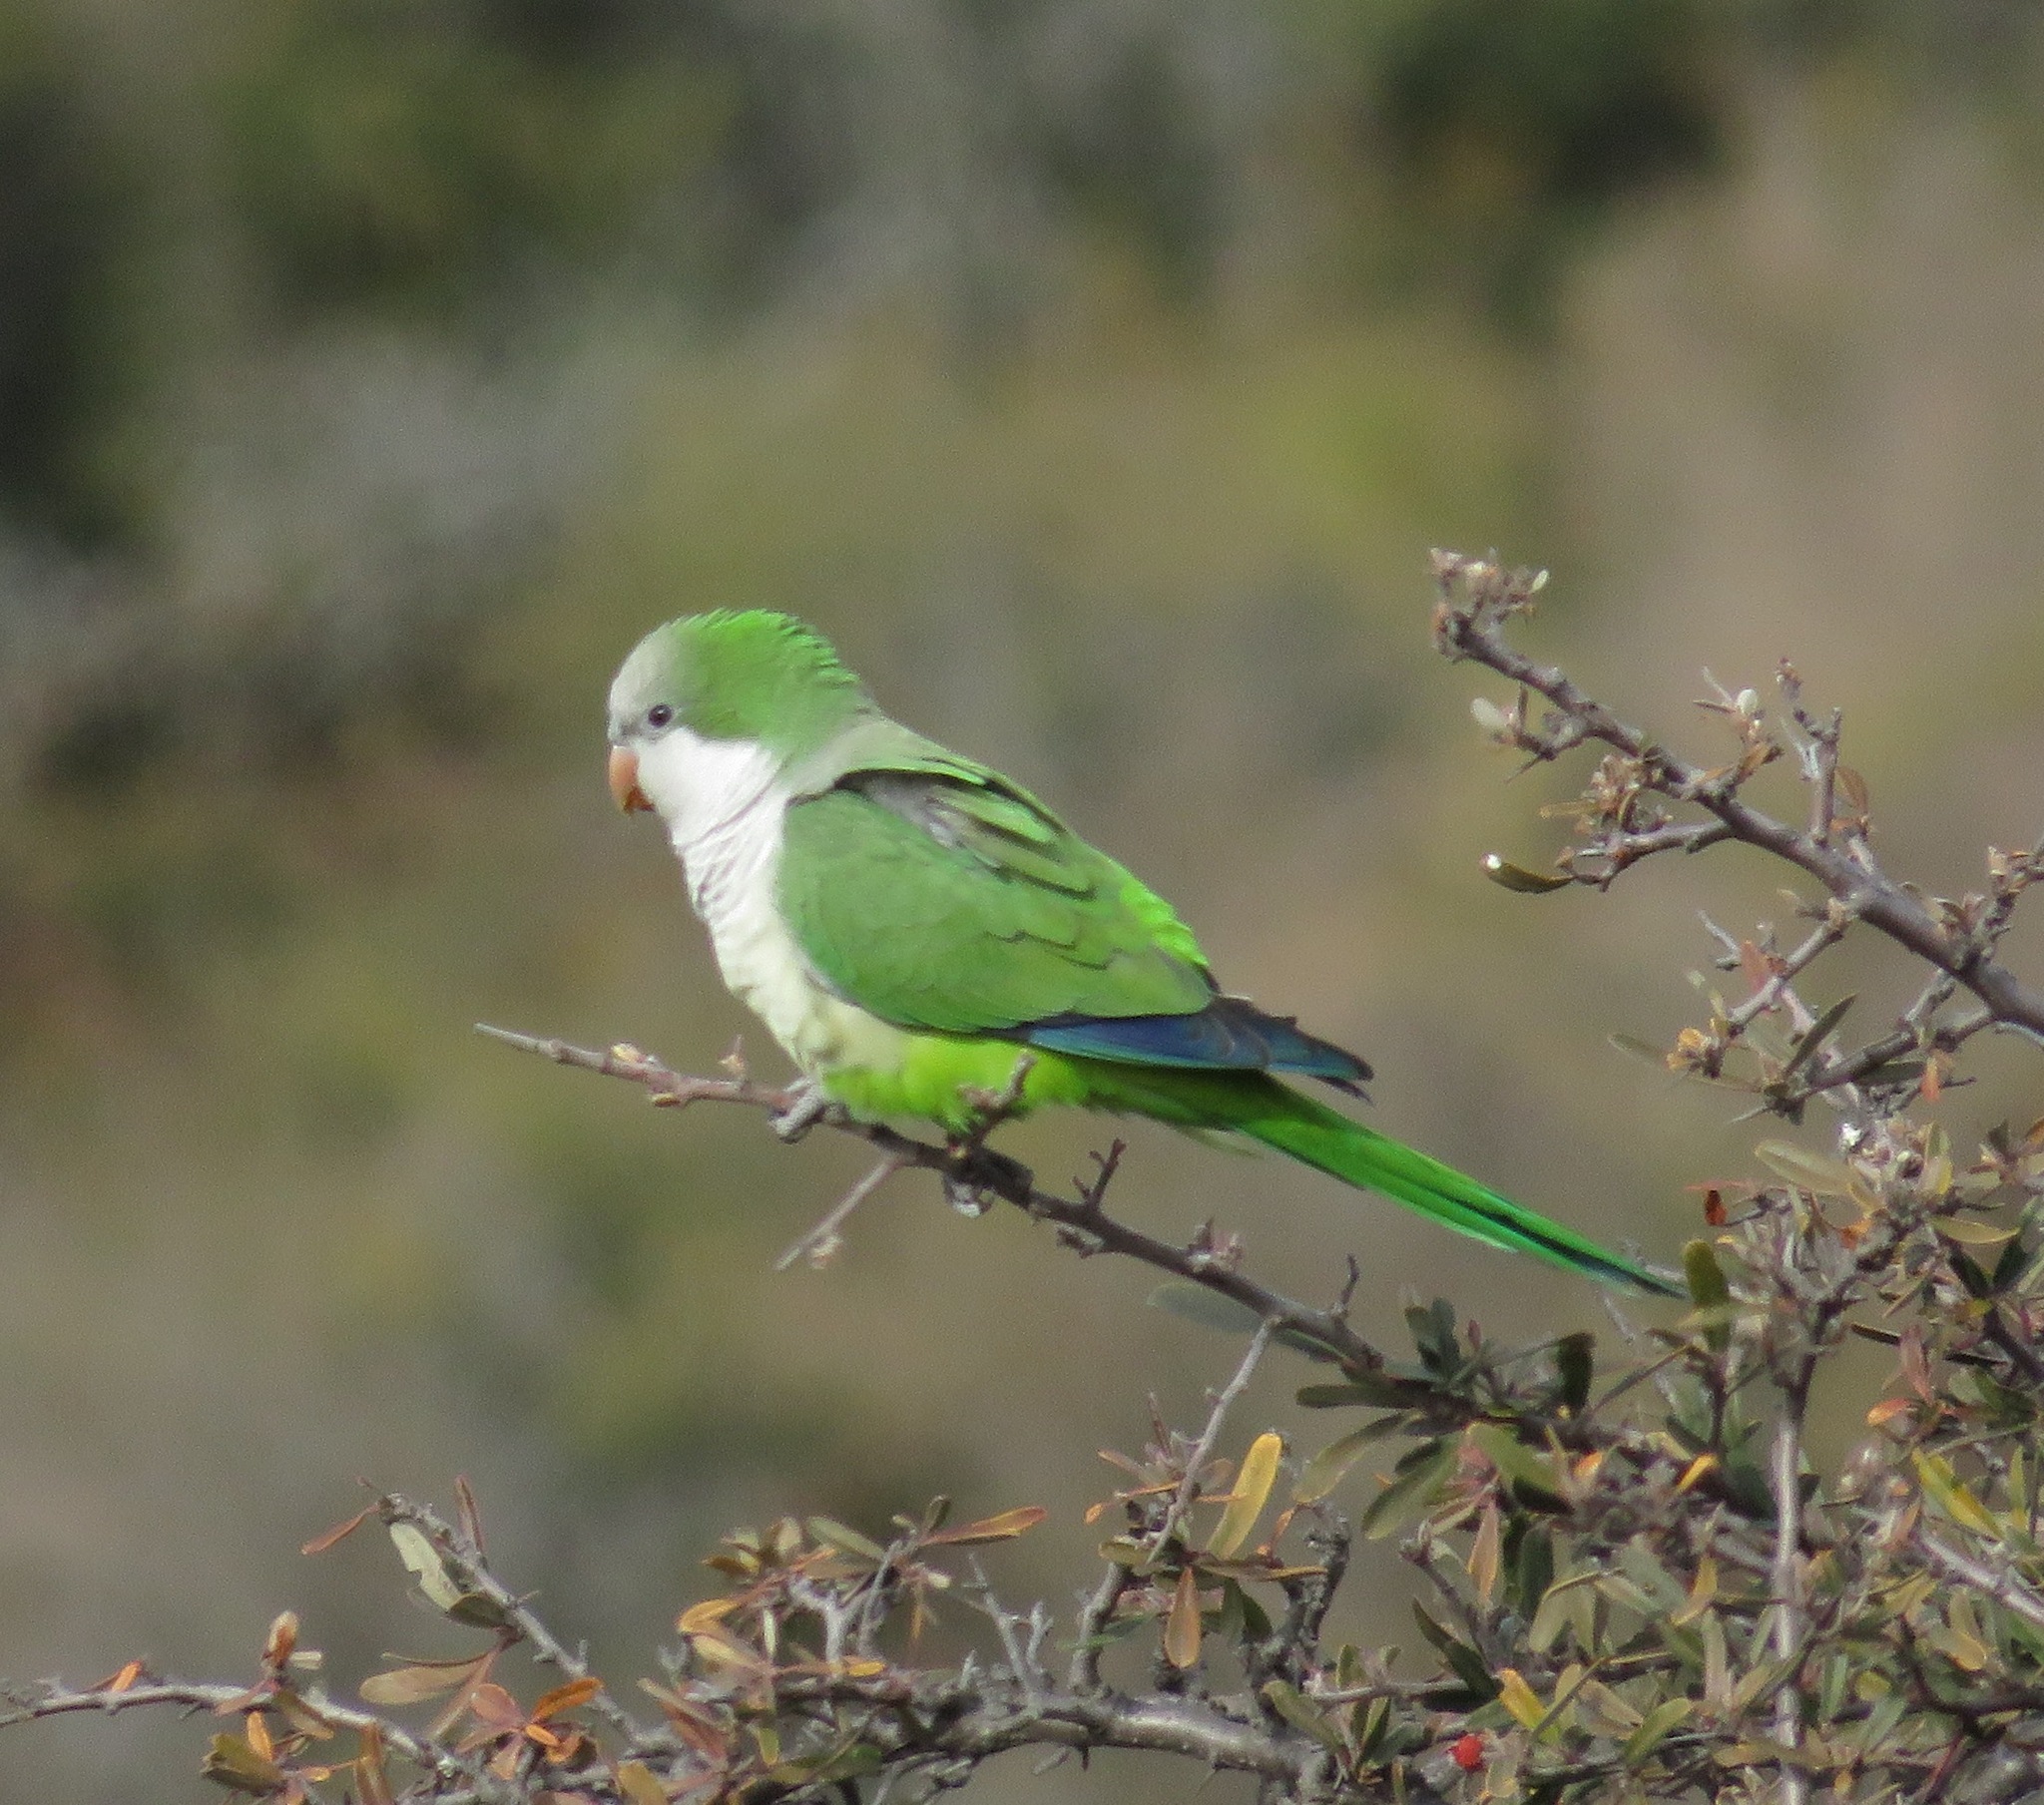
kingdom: Animalia
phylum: Chordata
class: Aves
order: Psittaciformes
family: Psittacidae
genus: Myiopsitta
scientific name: Myiopsitta monachus
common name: Monk parakeet
